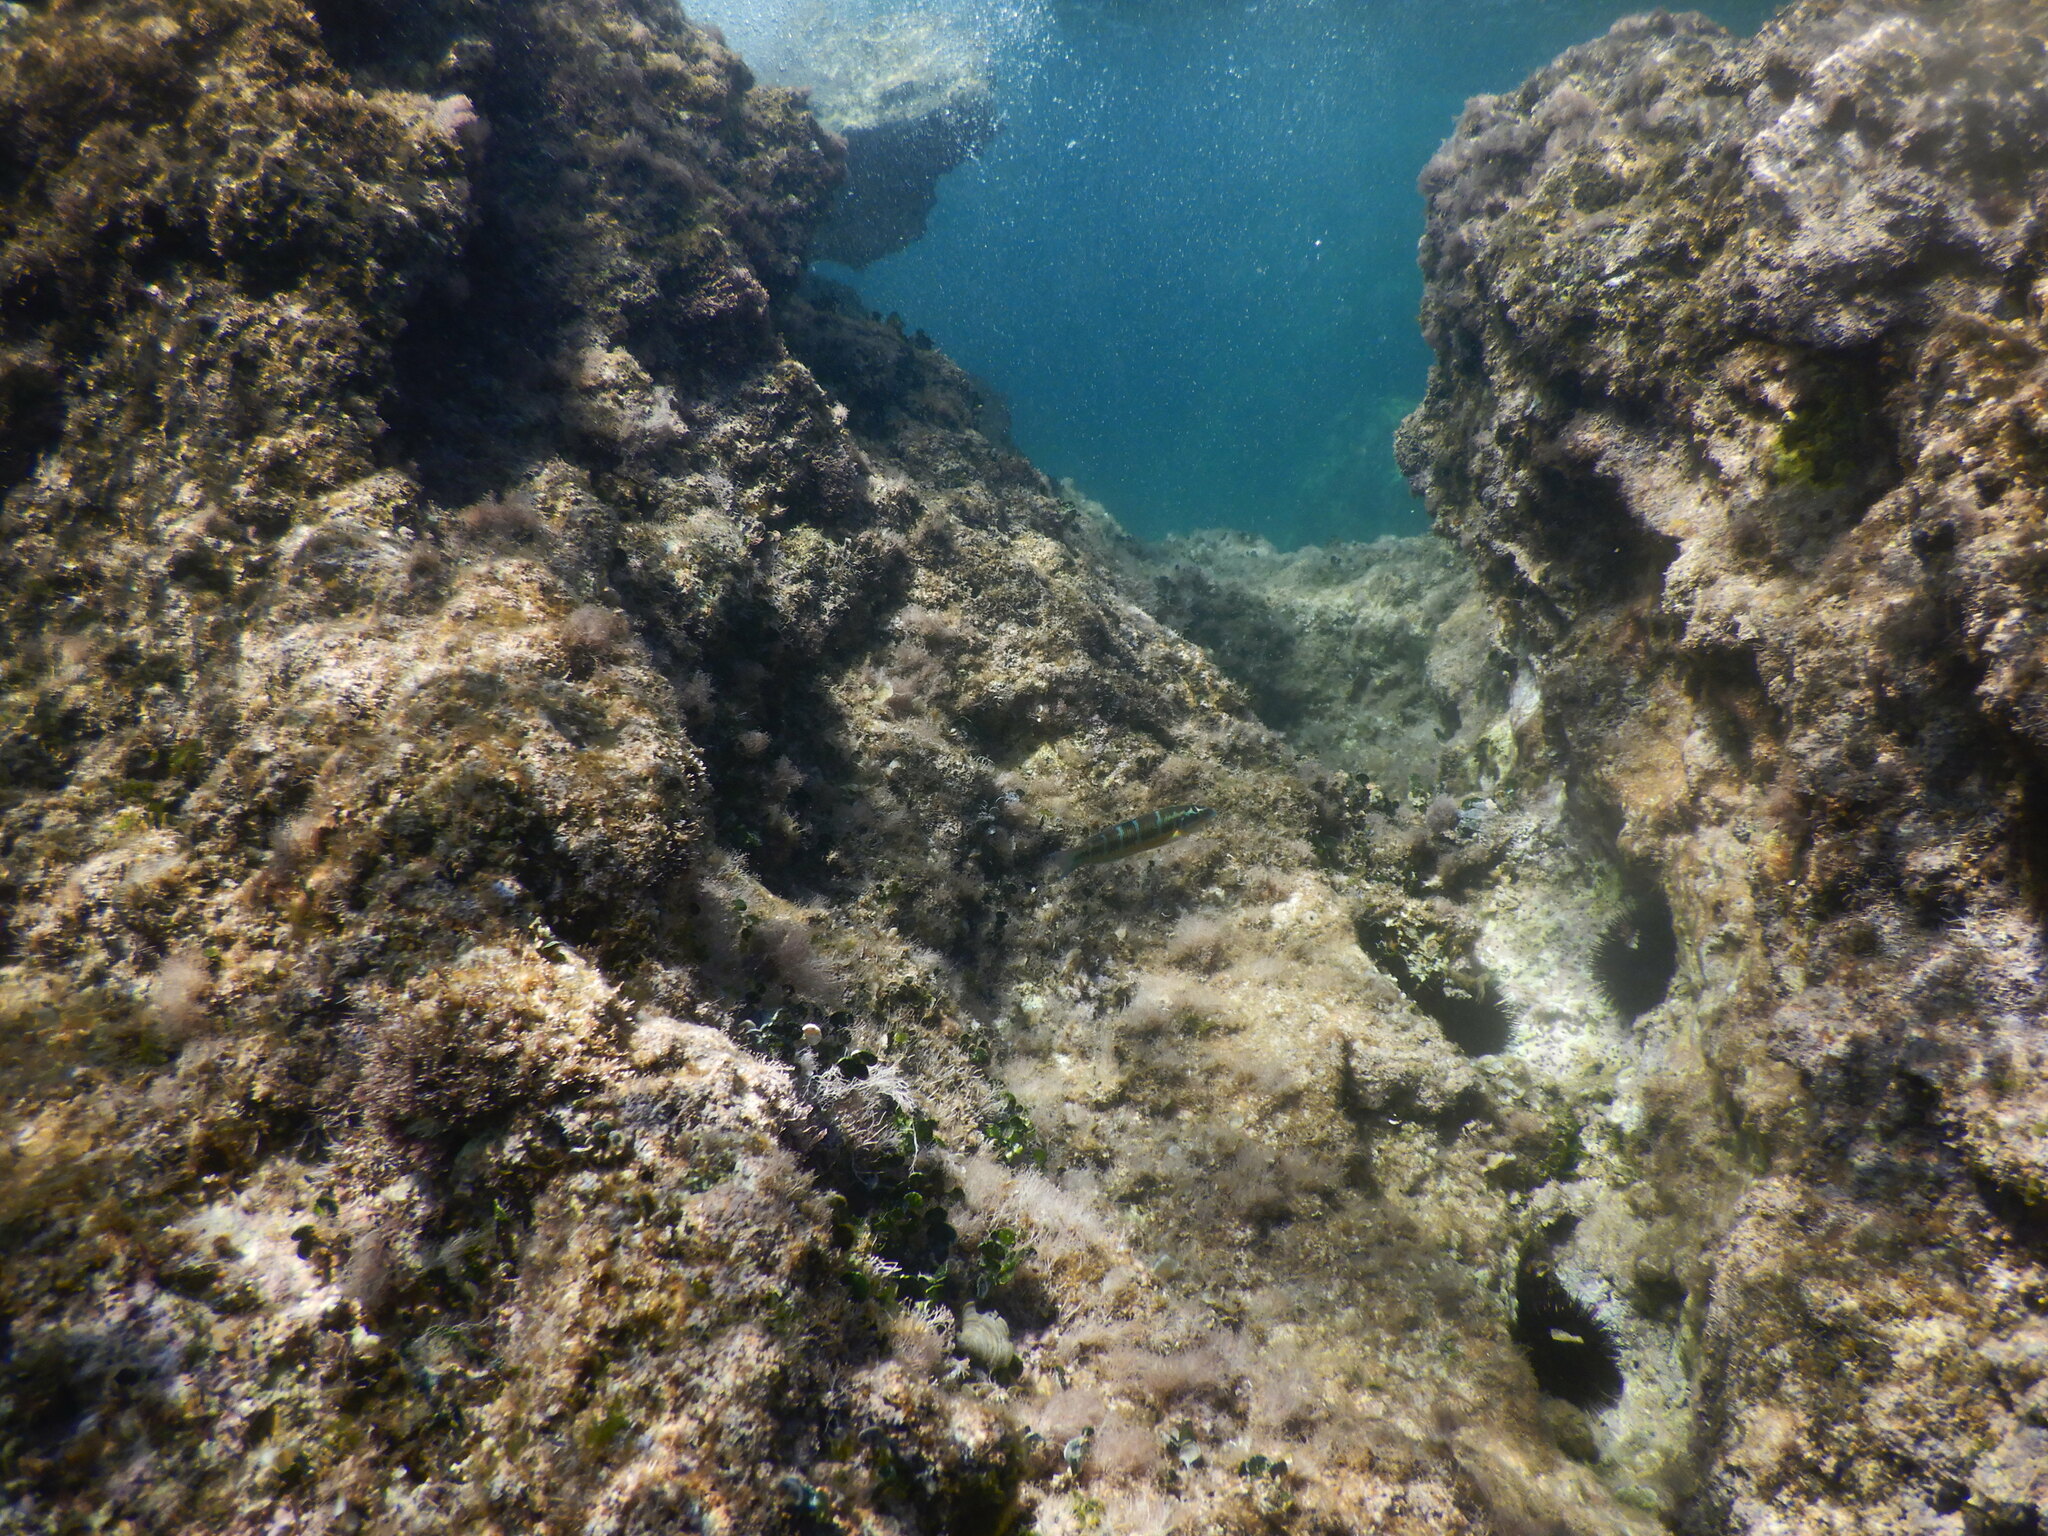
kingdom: Animalia
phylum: Chordata
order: Perciformes
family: Labridae
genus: Thalassoma
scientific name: Thalassoma pavo
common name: Ornate wrasse
